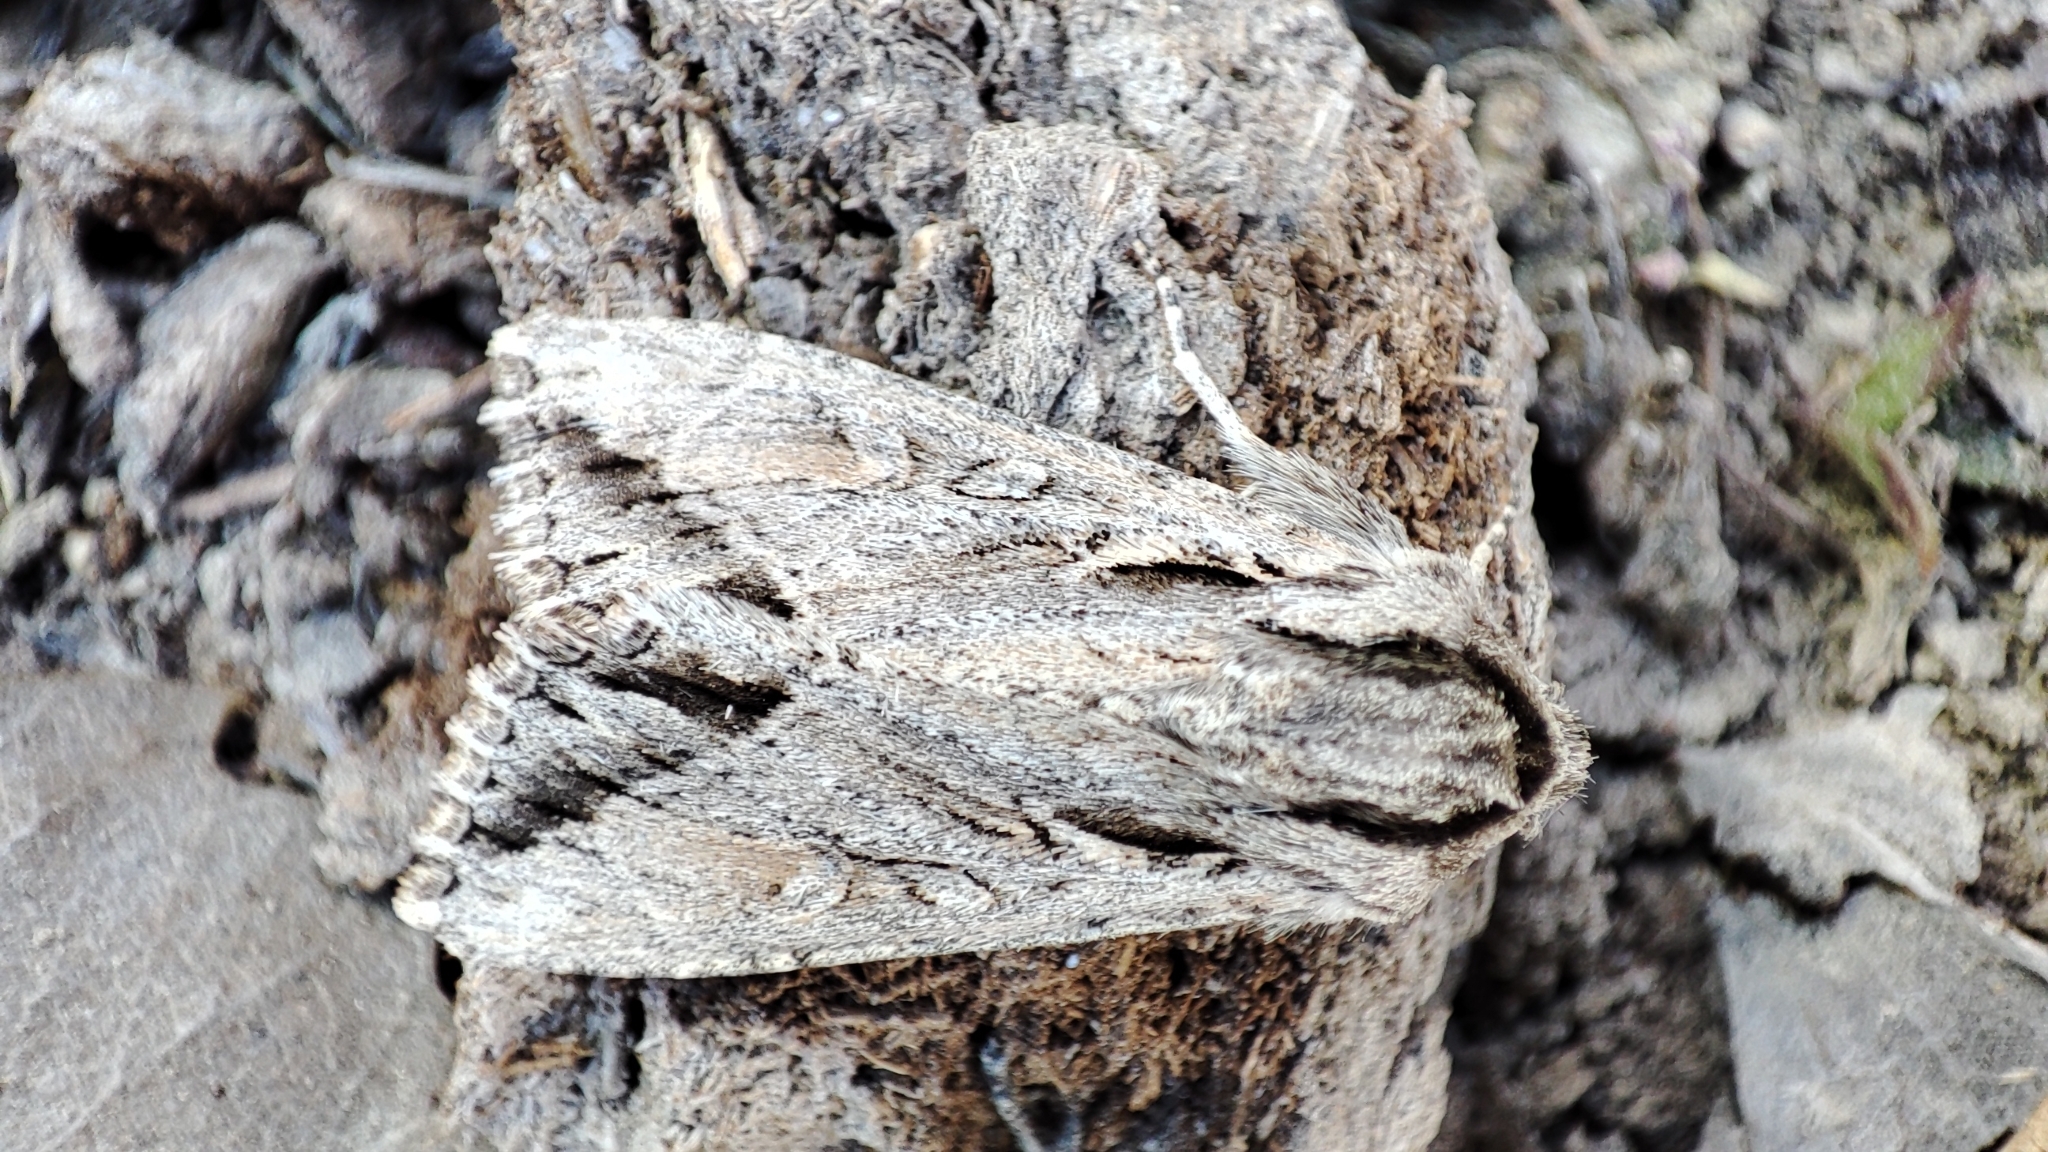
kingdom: Animalia
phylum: Arthropoda
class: Insecta
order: Lepidoptera
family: Noctuidae
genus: Auchmis
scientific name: Auchmis peterseni
